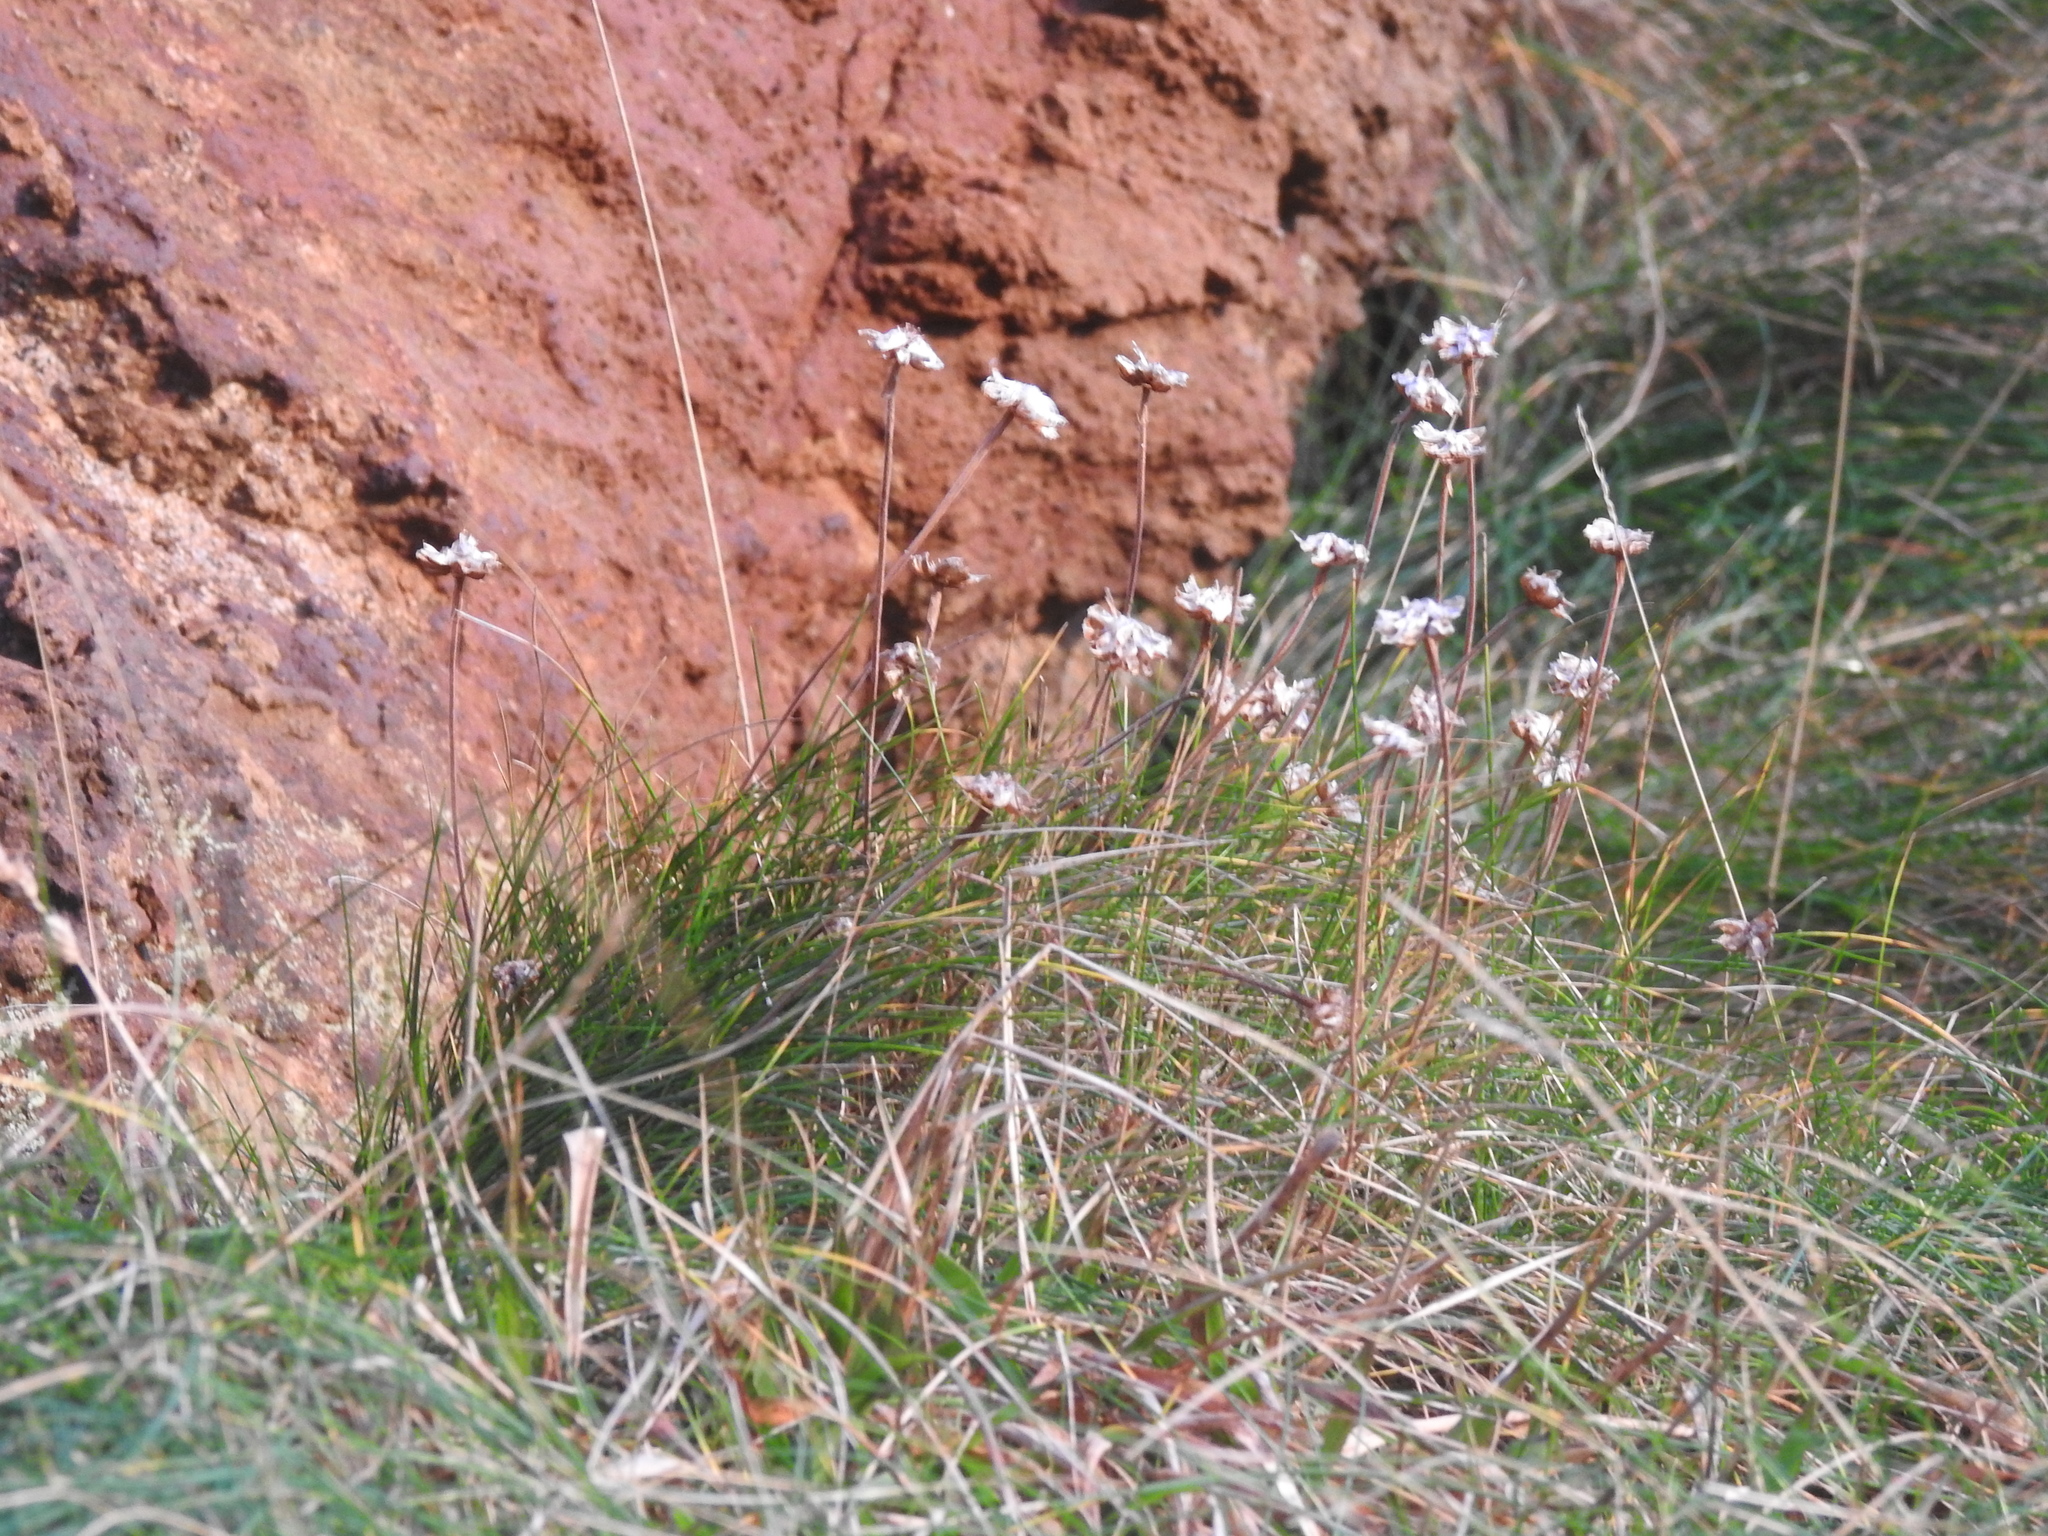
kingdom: Plantae
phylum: Tracheophyta
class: Magnoliopsida
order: Caryophyllales
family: Plumbaginaceae
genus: Armeria
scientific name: Armeria maritima
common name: Thrift
